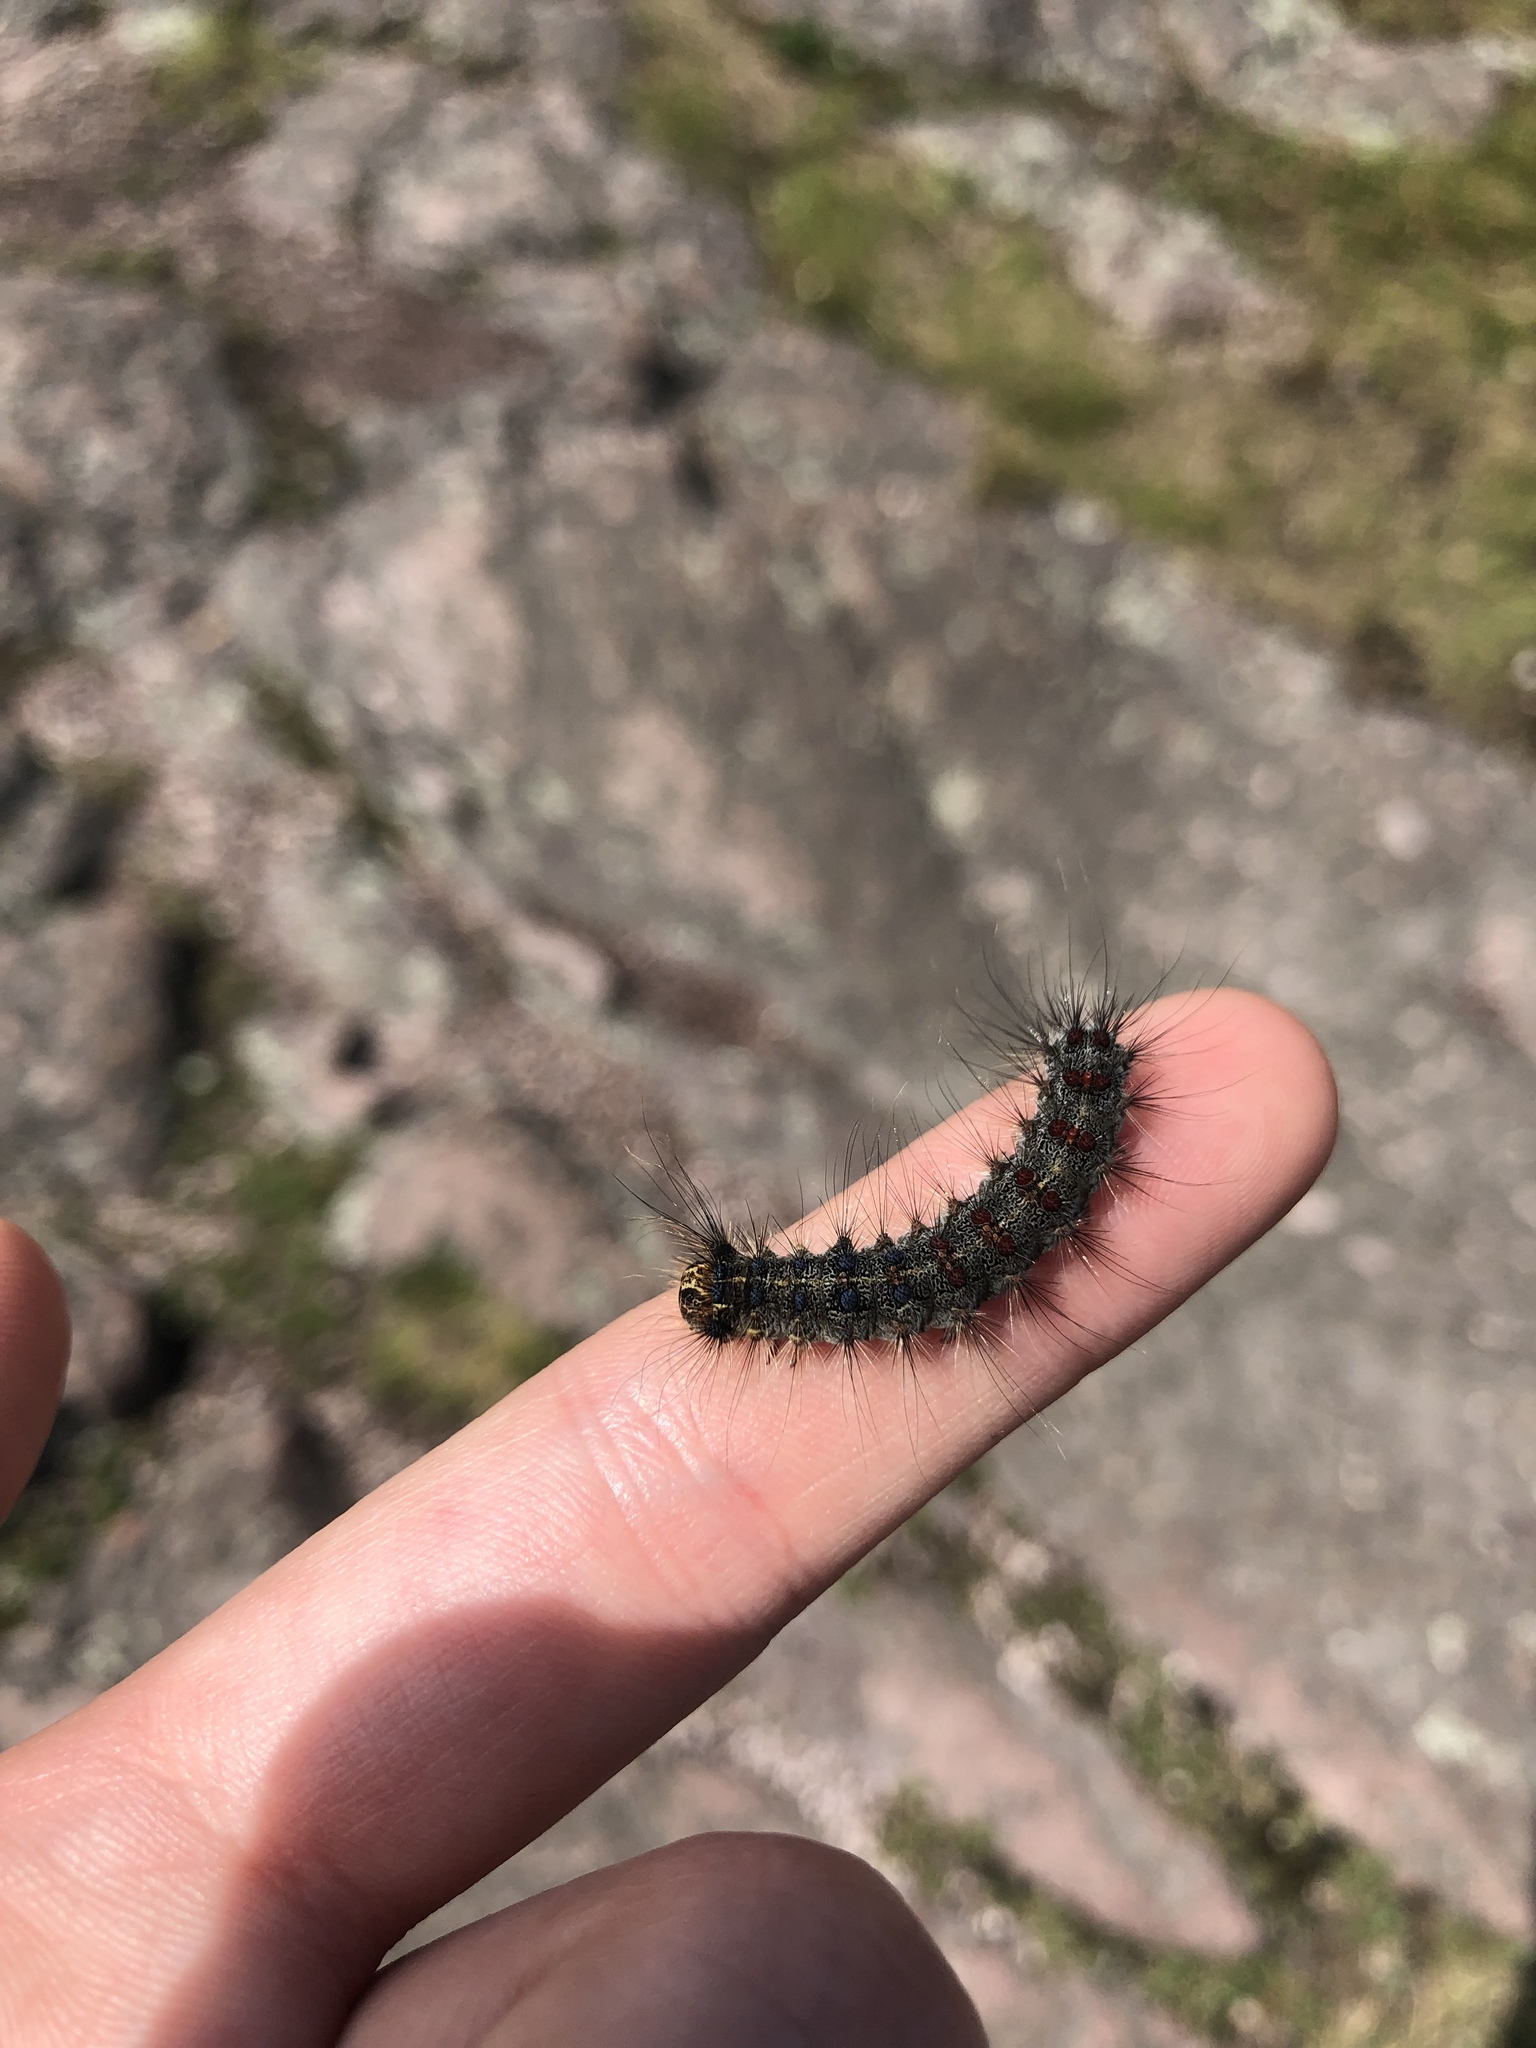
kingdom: Animalia
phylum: Arthropoda
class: Insecta
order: Lepidoptera
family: Erebidae
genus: Lymantria
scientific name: Lymantria dispar
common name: Gypsy moth
